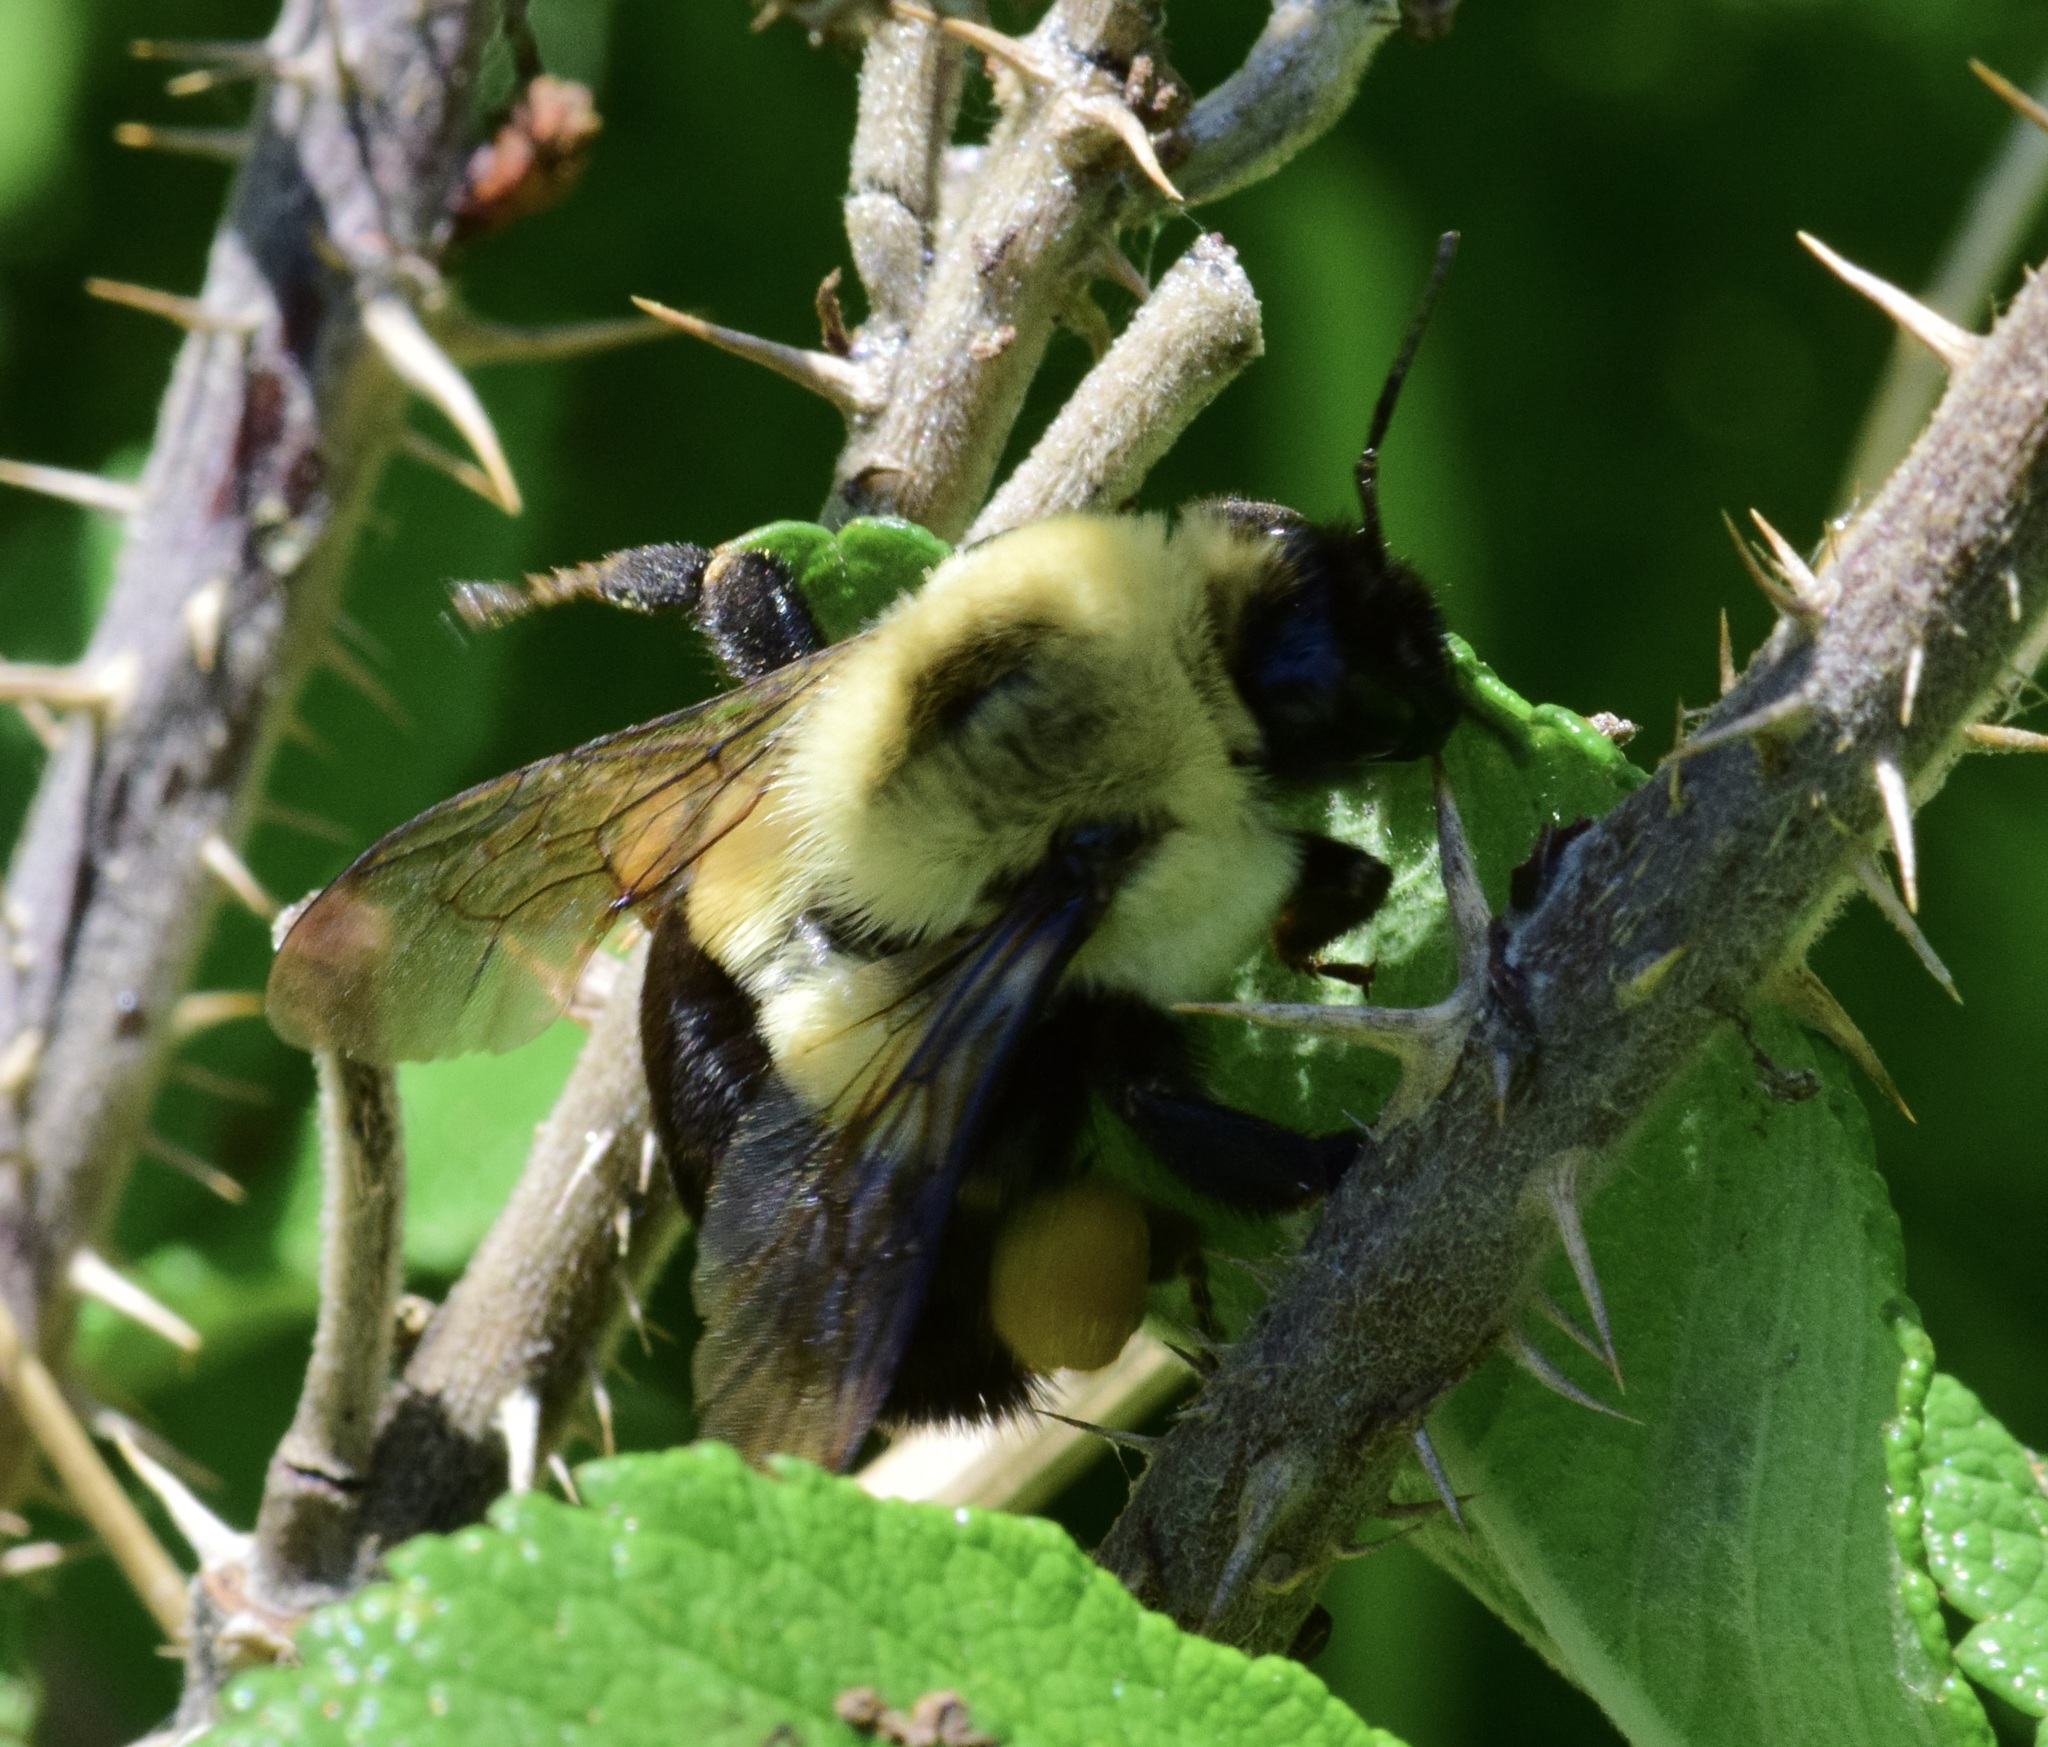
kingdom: Animalia
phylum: Arthropoda
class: Insecta
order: Hymenoptera
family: Apidae
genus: Bombus
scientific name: Bombus impatiens
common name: Common eastern bumble bee
